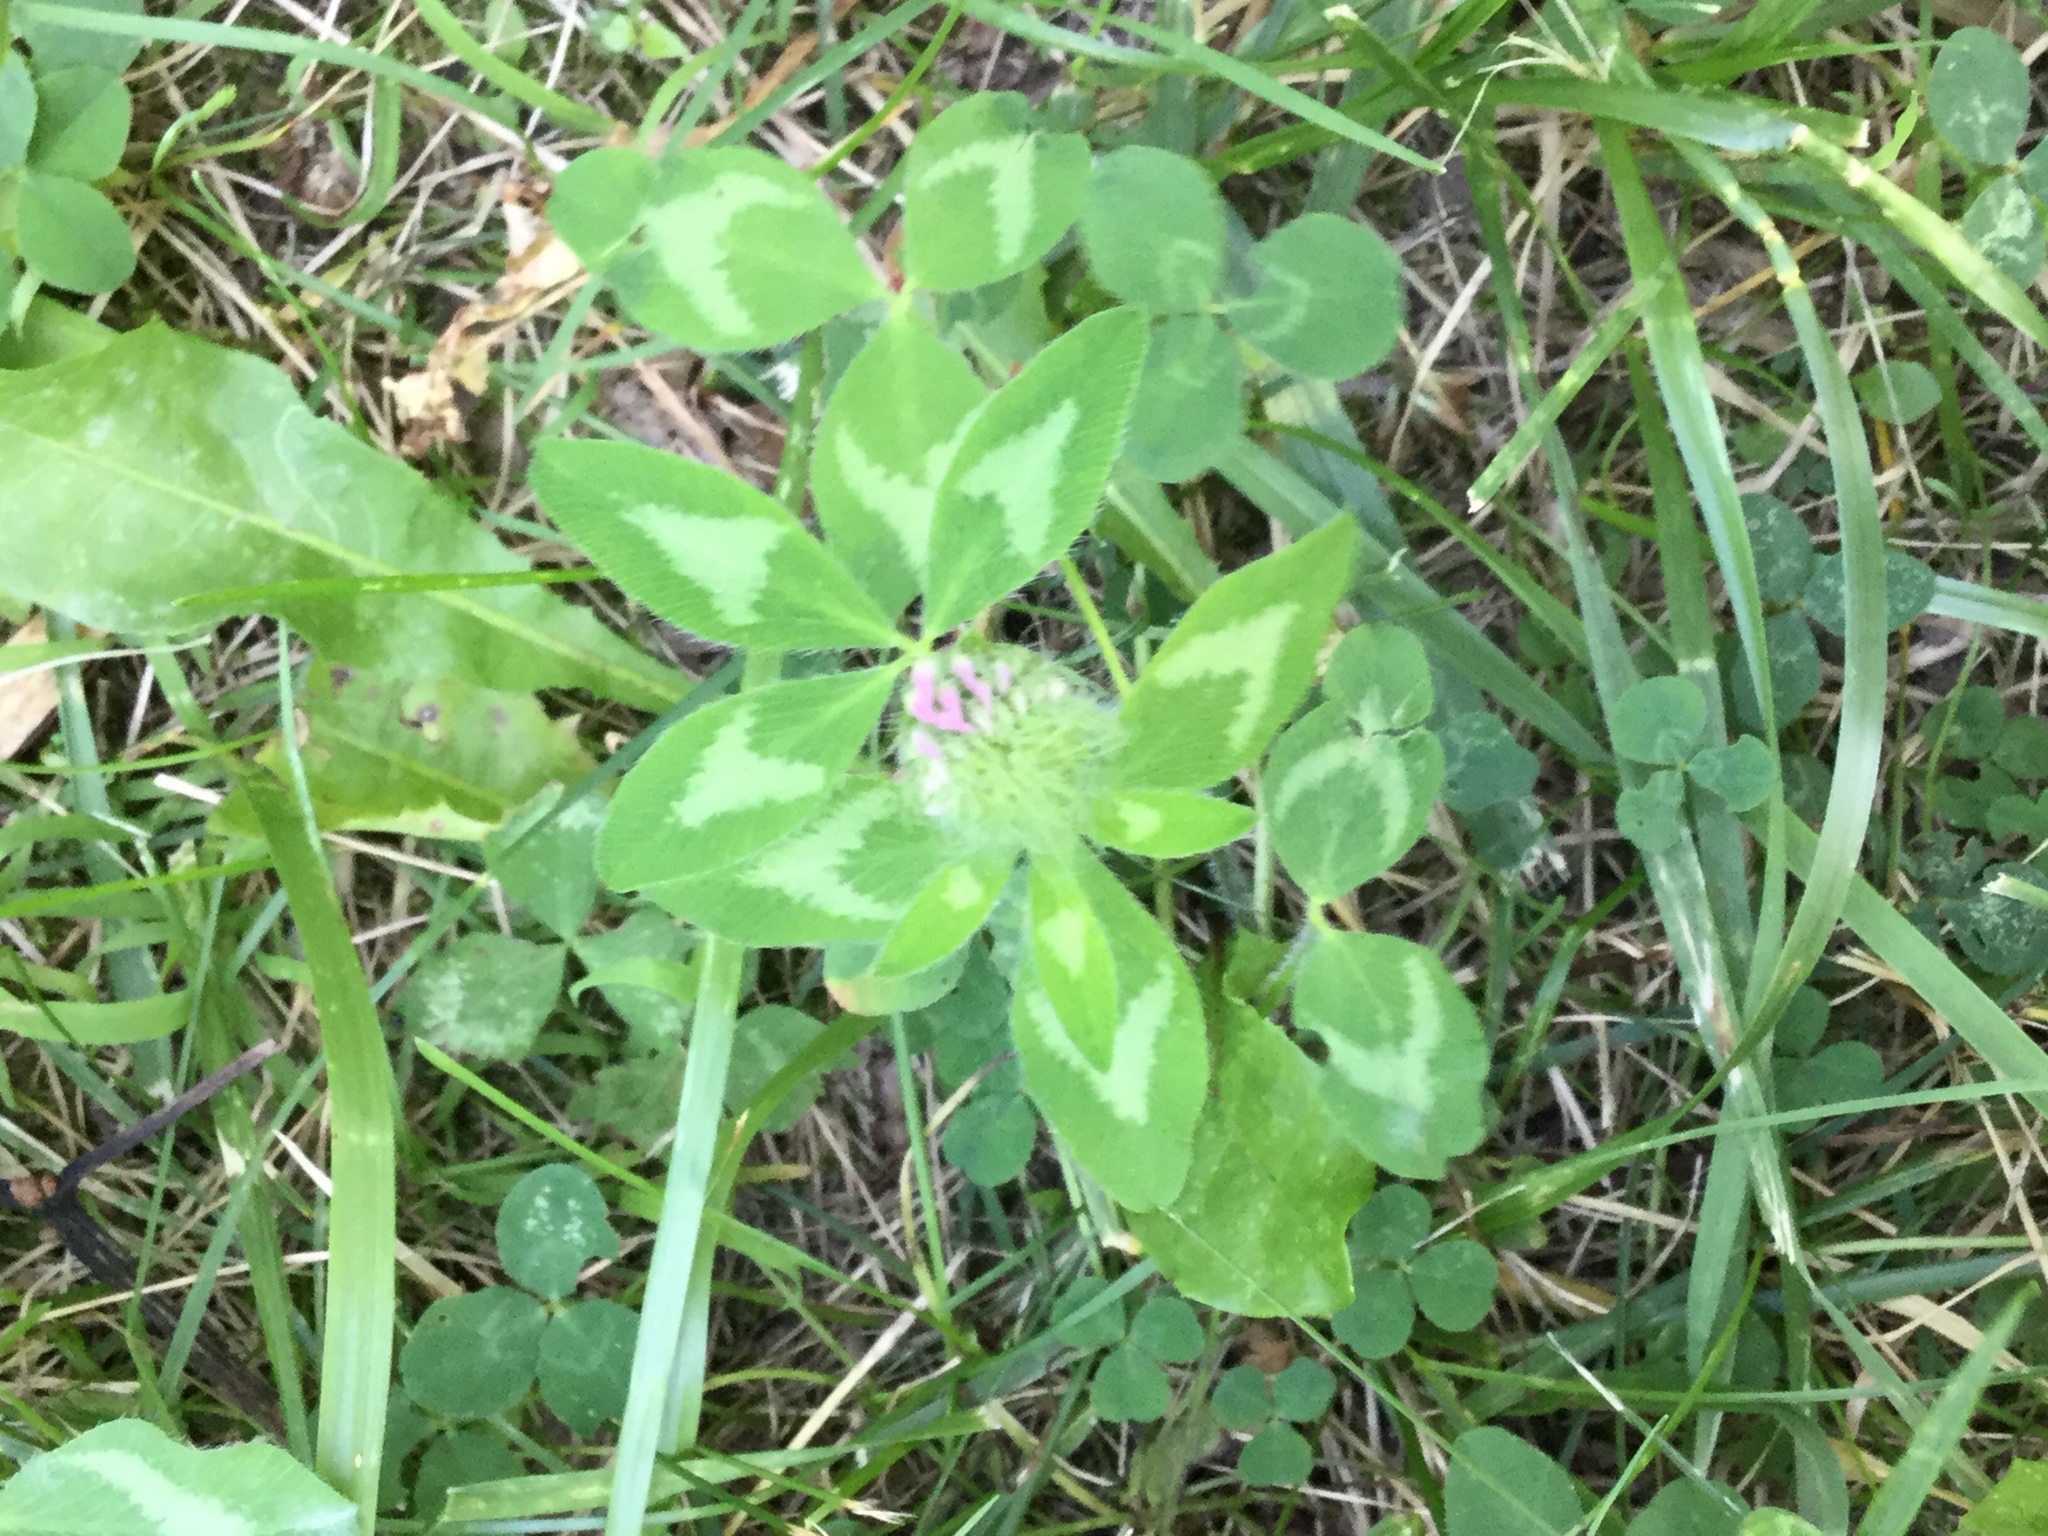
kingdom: Plantae
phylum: Tracheophyta
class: Magnoliopsida
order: Fabales
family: Fabaceae
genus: Trifolium
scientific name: Trifolium pratense
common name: Red clover
